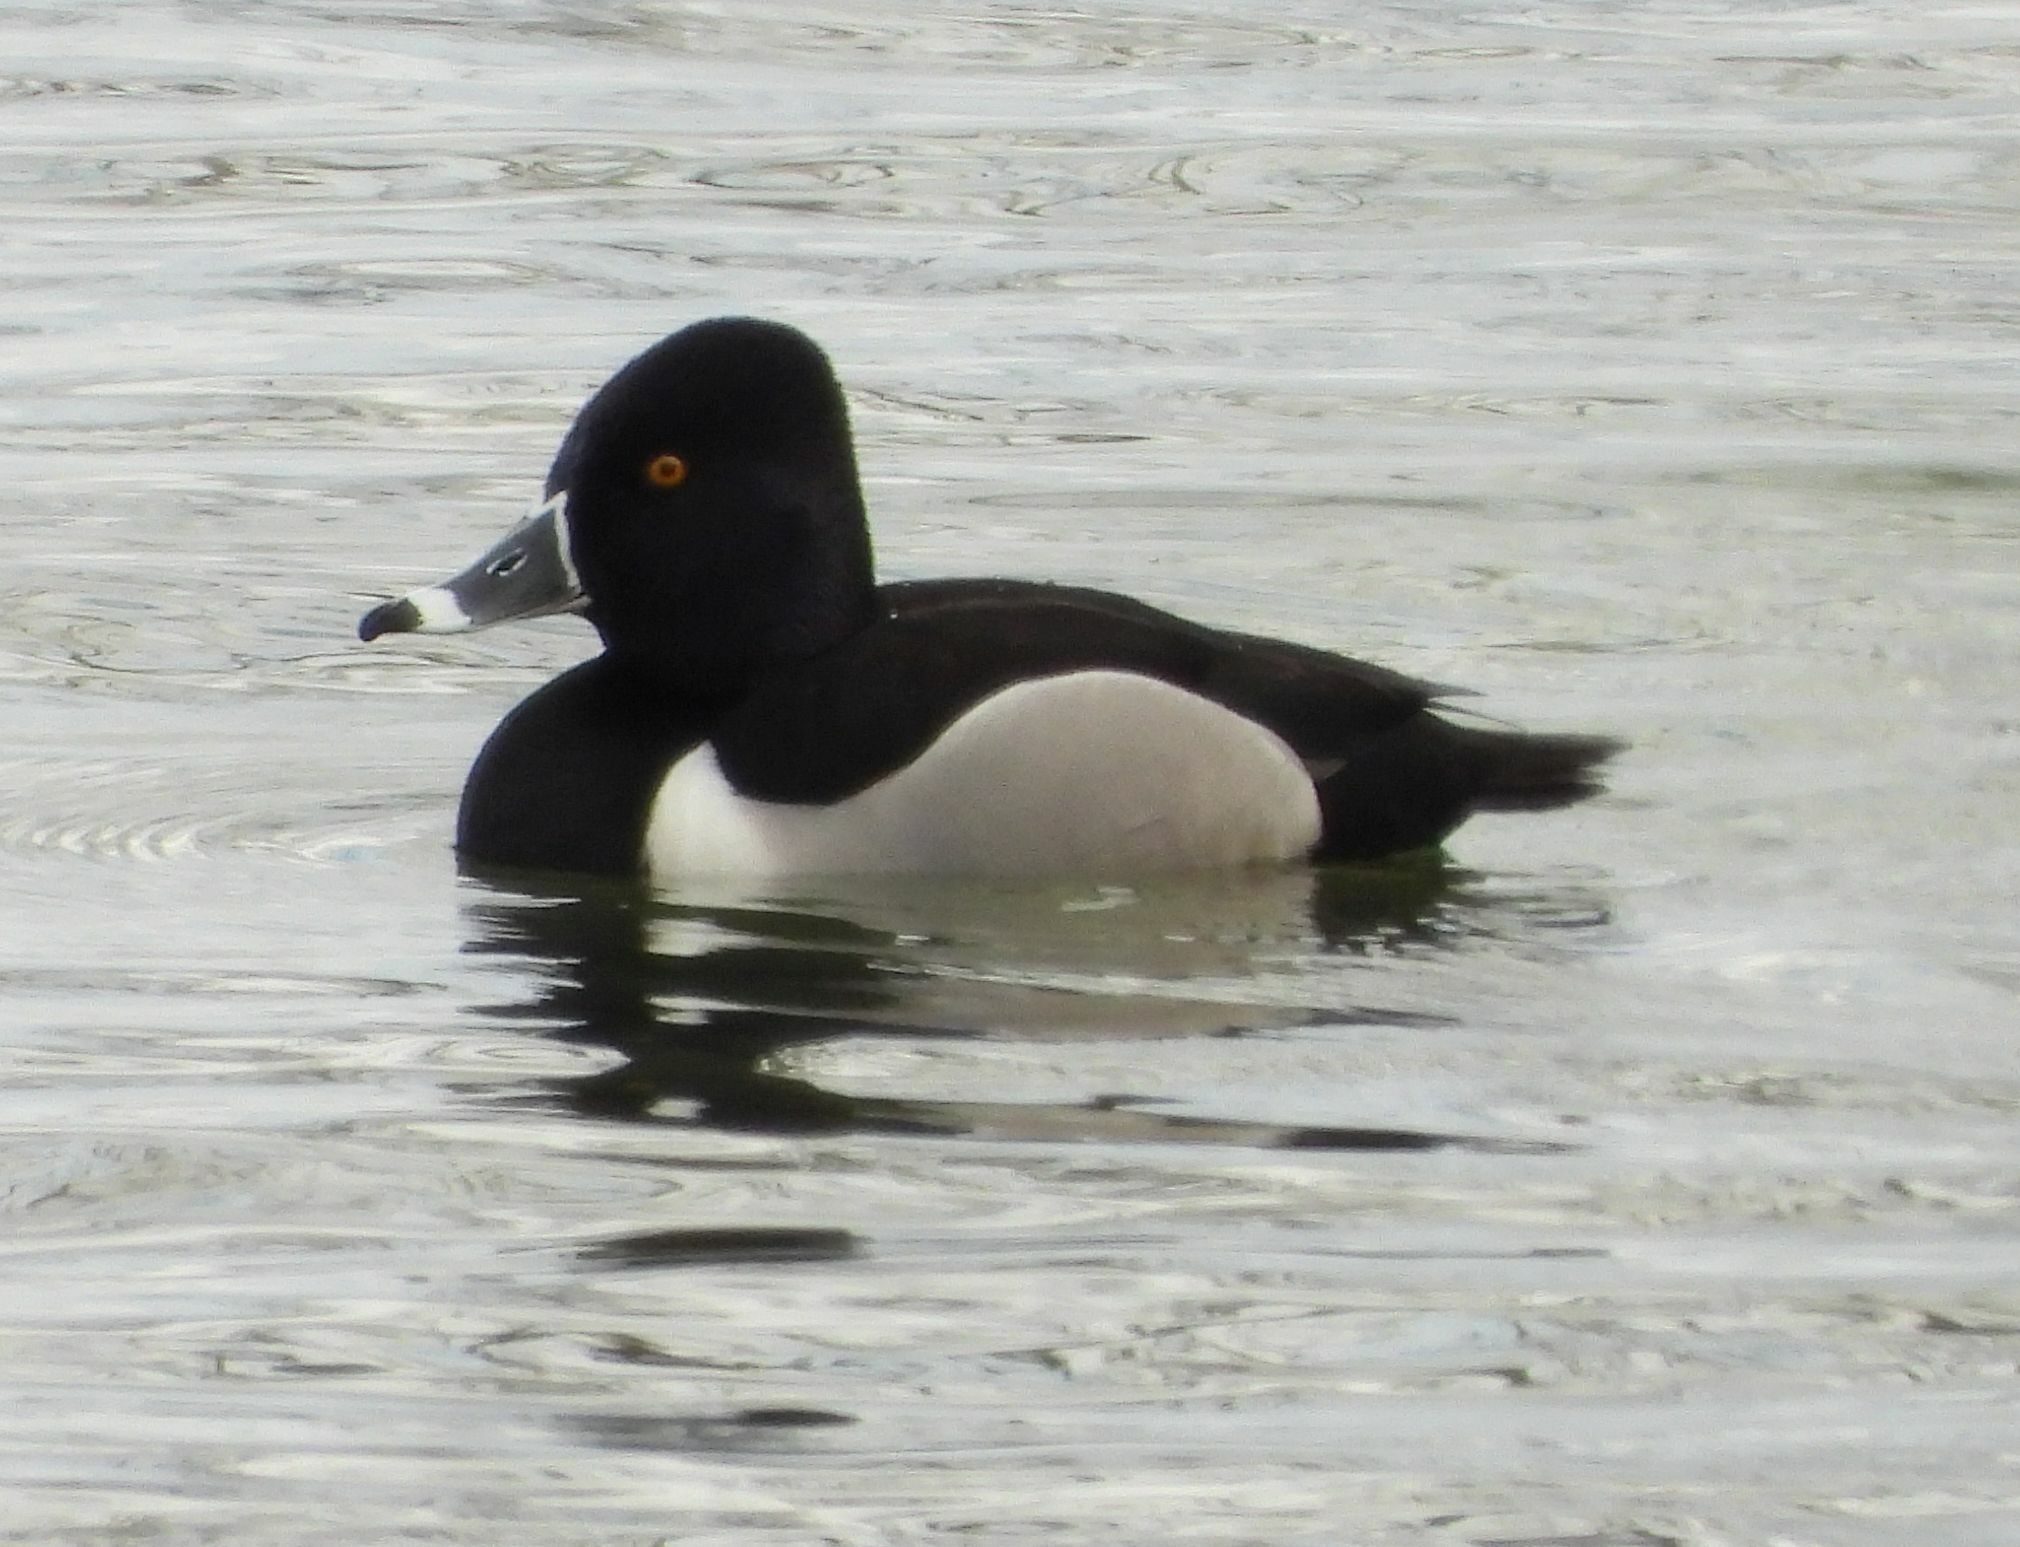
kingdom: Animalia
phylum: Chordata
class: Aves
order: Anseriformes
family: Anatidae
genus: Aythya
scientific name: Aythya collaris
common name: Ring-necked duck
